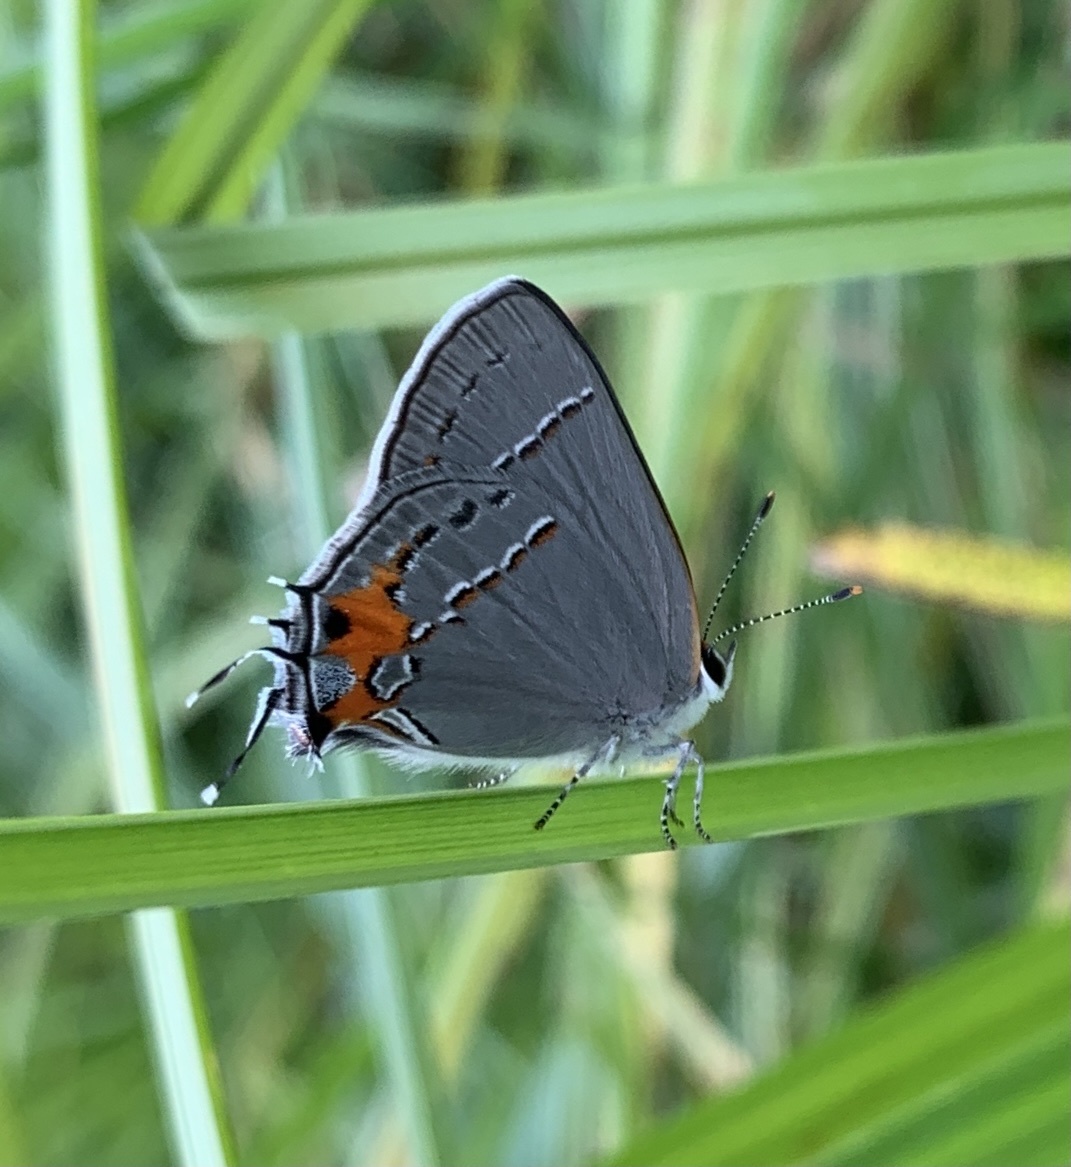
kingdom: Animalia
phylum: Arthropoda
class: Insecta
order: Lepidoptera
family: Lycaenidae
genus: Strymon
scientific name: Strymon melinus
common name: Gray hairstreak
